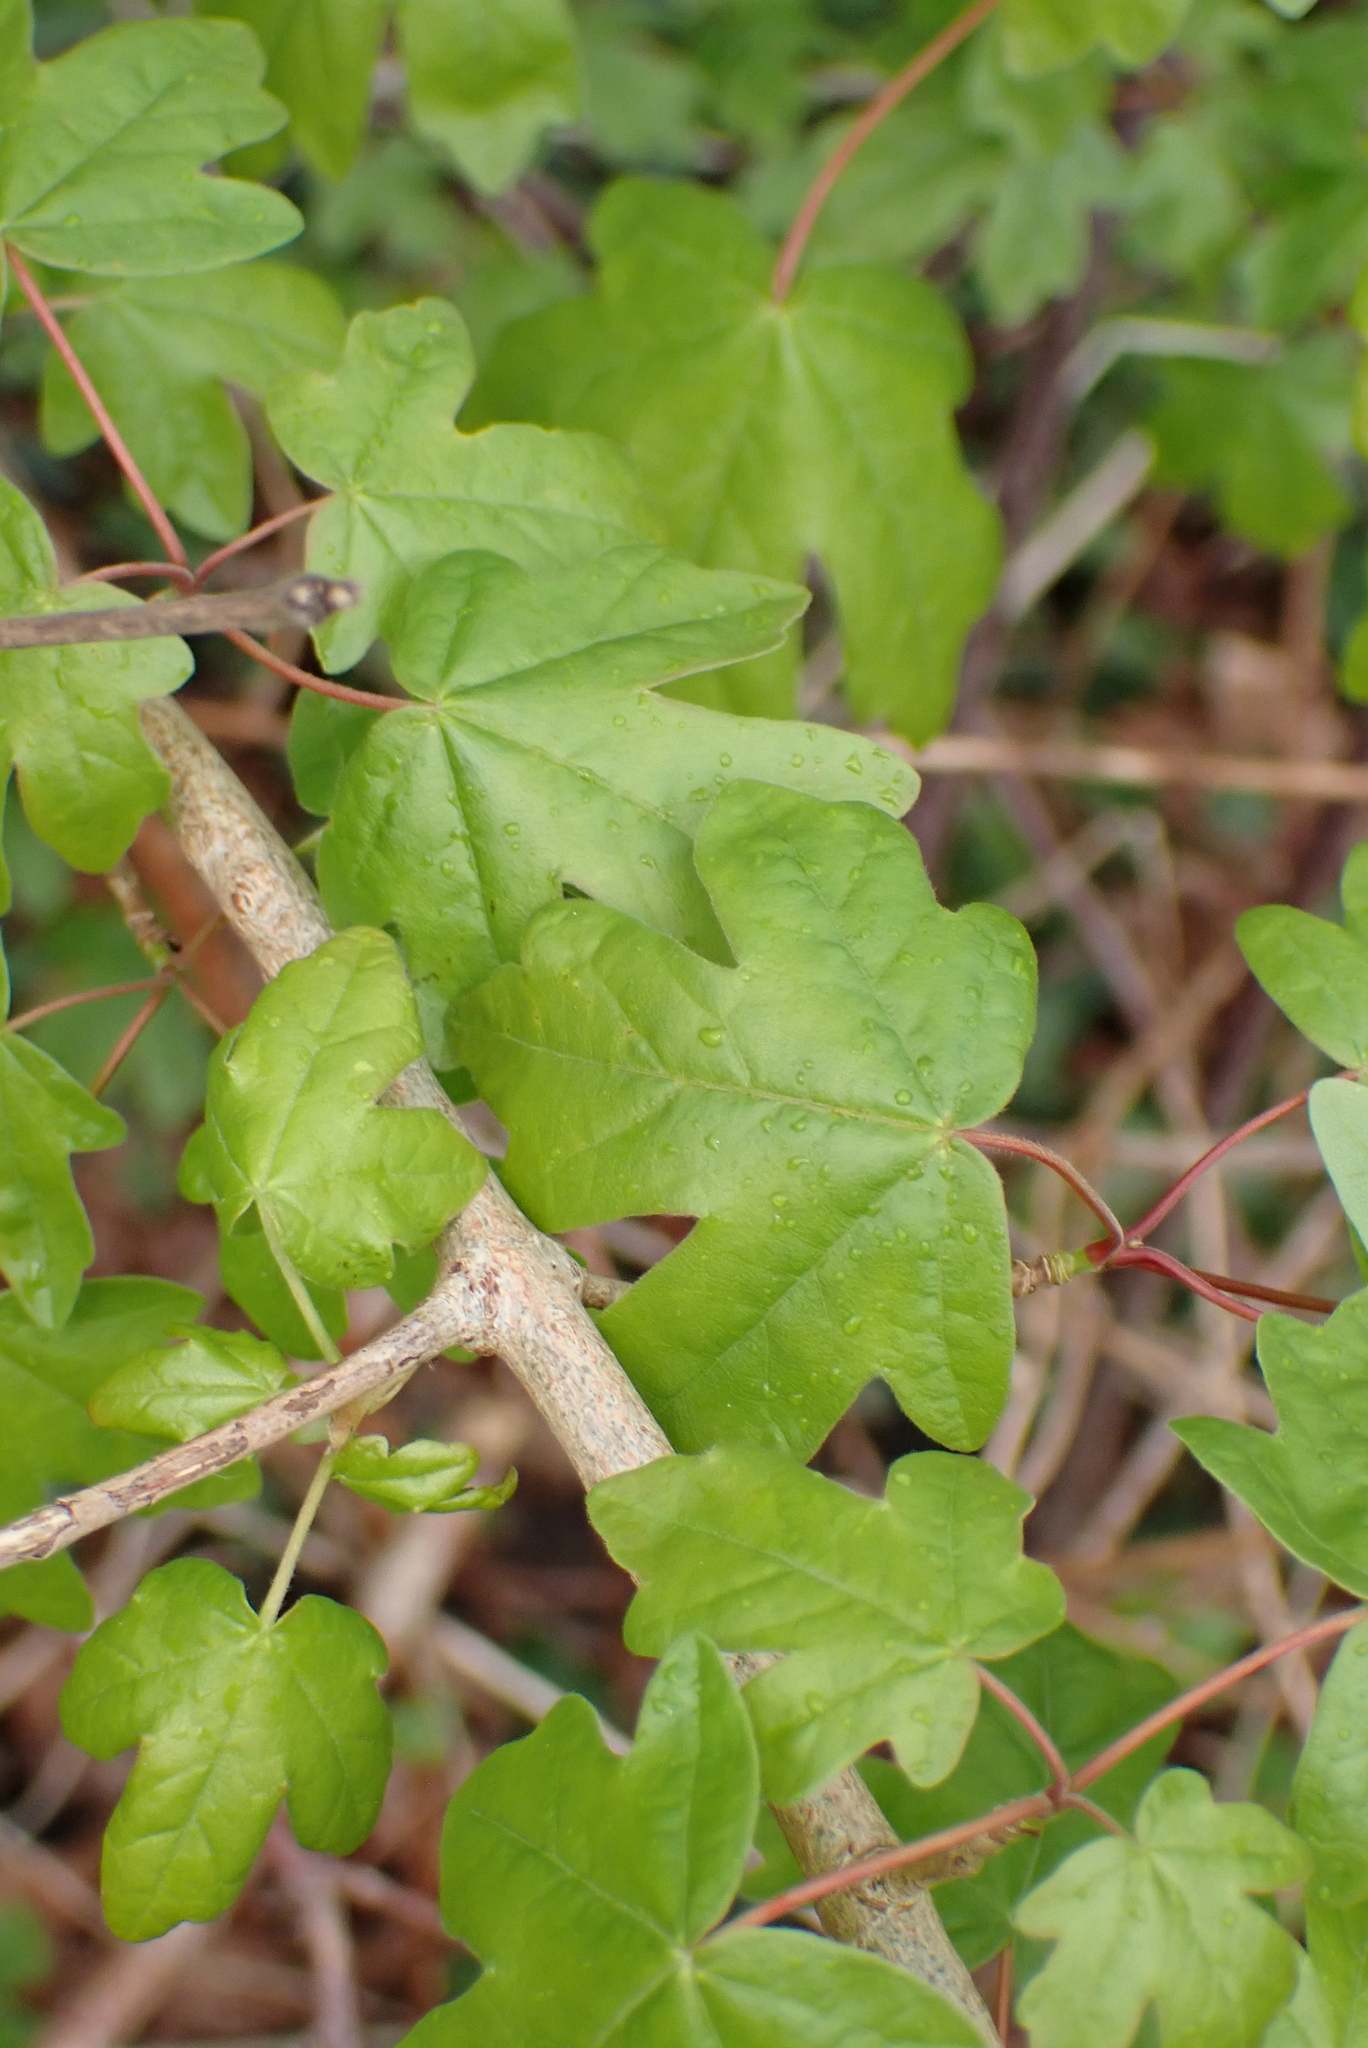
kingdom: Plantae
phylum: Tracheophyta
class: Magnoliopsida
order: Sapindales
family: Sapindaceae
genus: Acer
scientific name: Acer campestre
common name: Field maple
